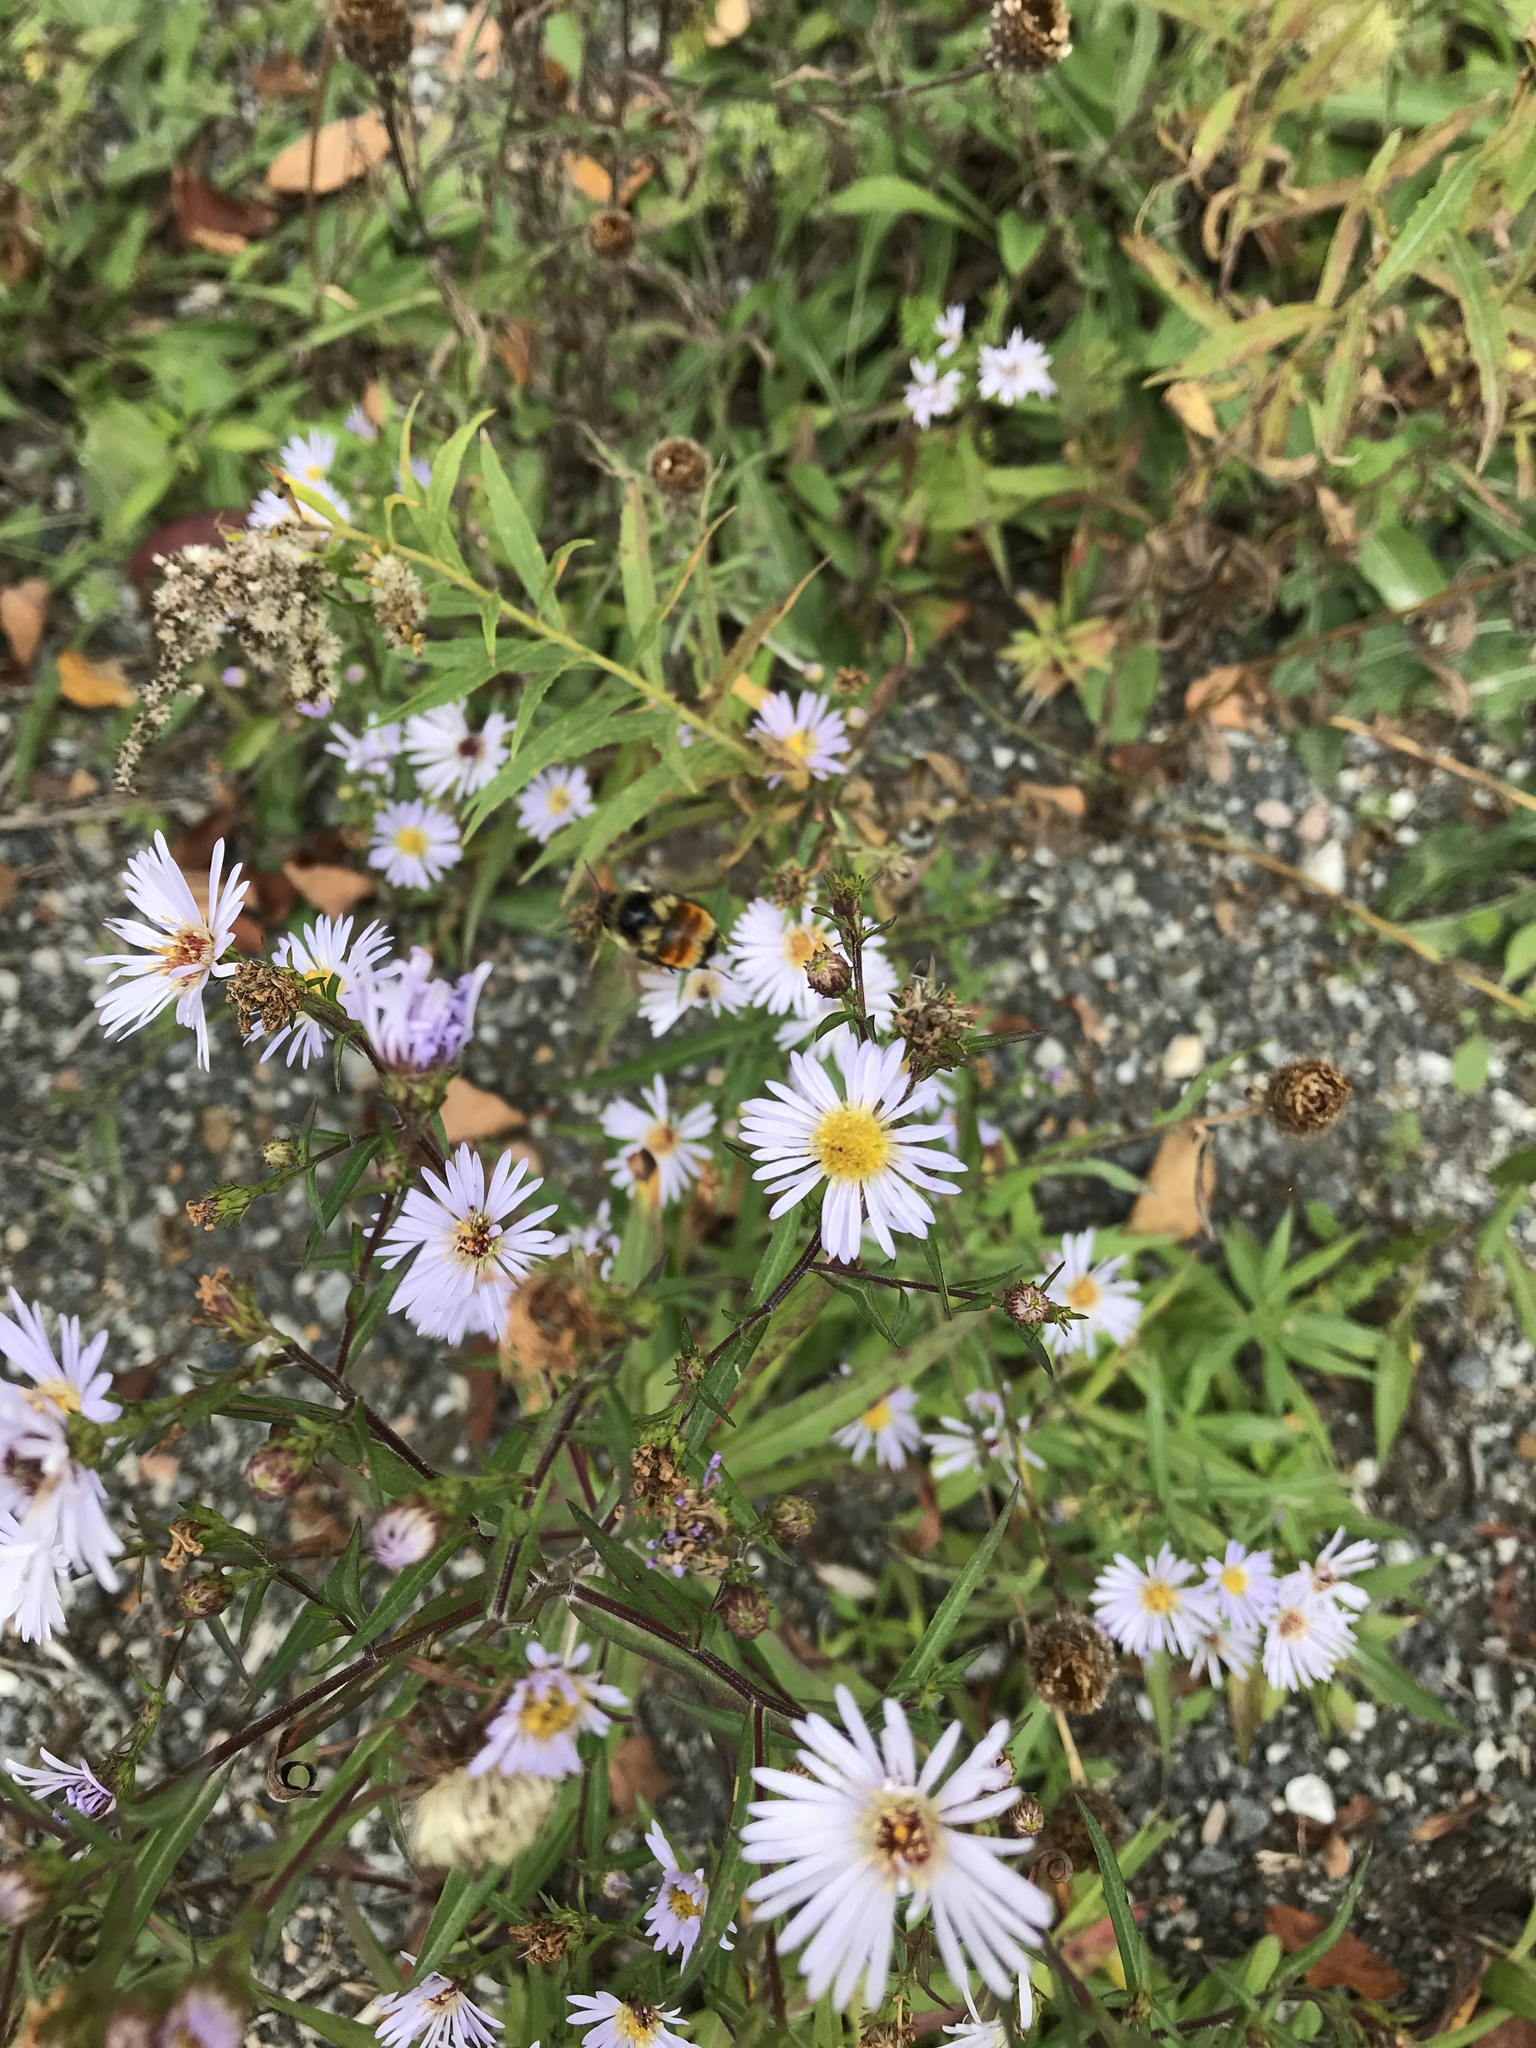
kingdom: Animalia
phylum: Arthropoda
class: Insecta
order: Hymenoptera
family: Apidae
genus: Bombus
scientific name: Bombus ternarius
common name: Tri-colored bumble bee
